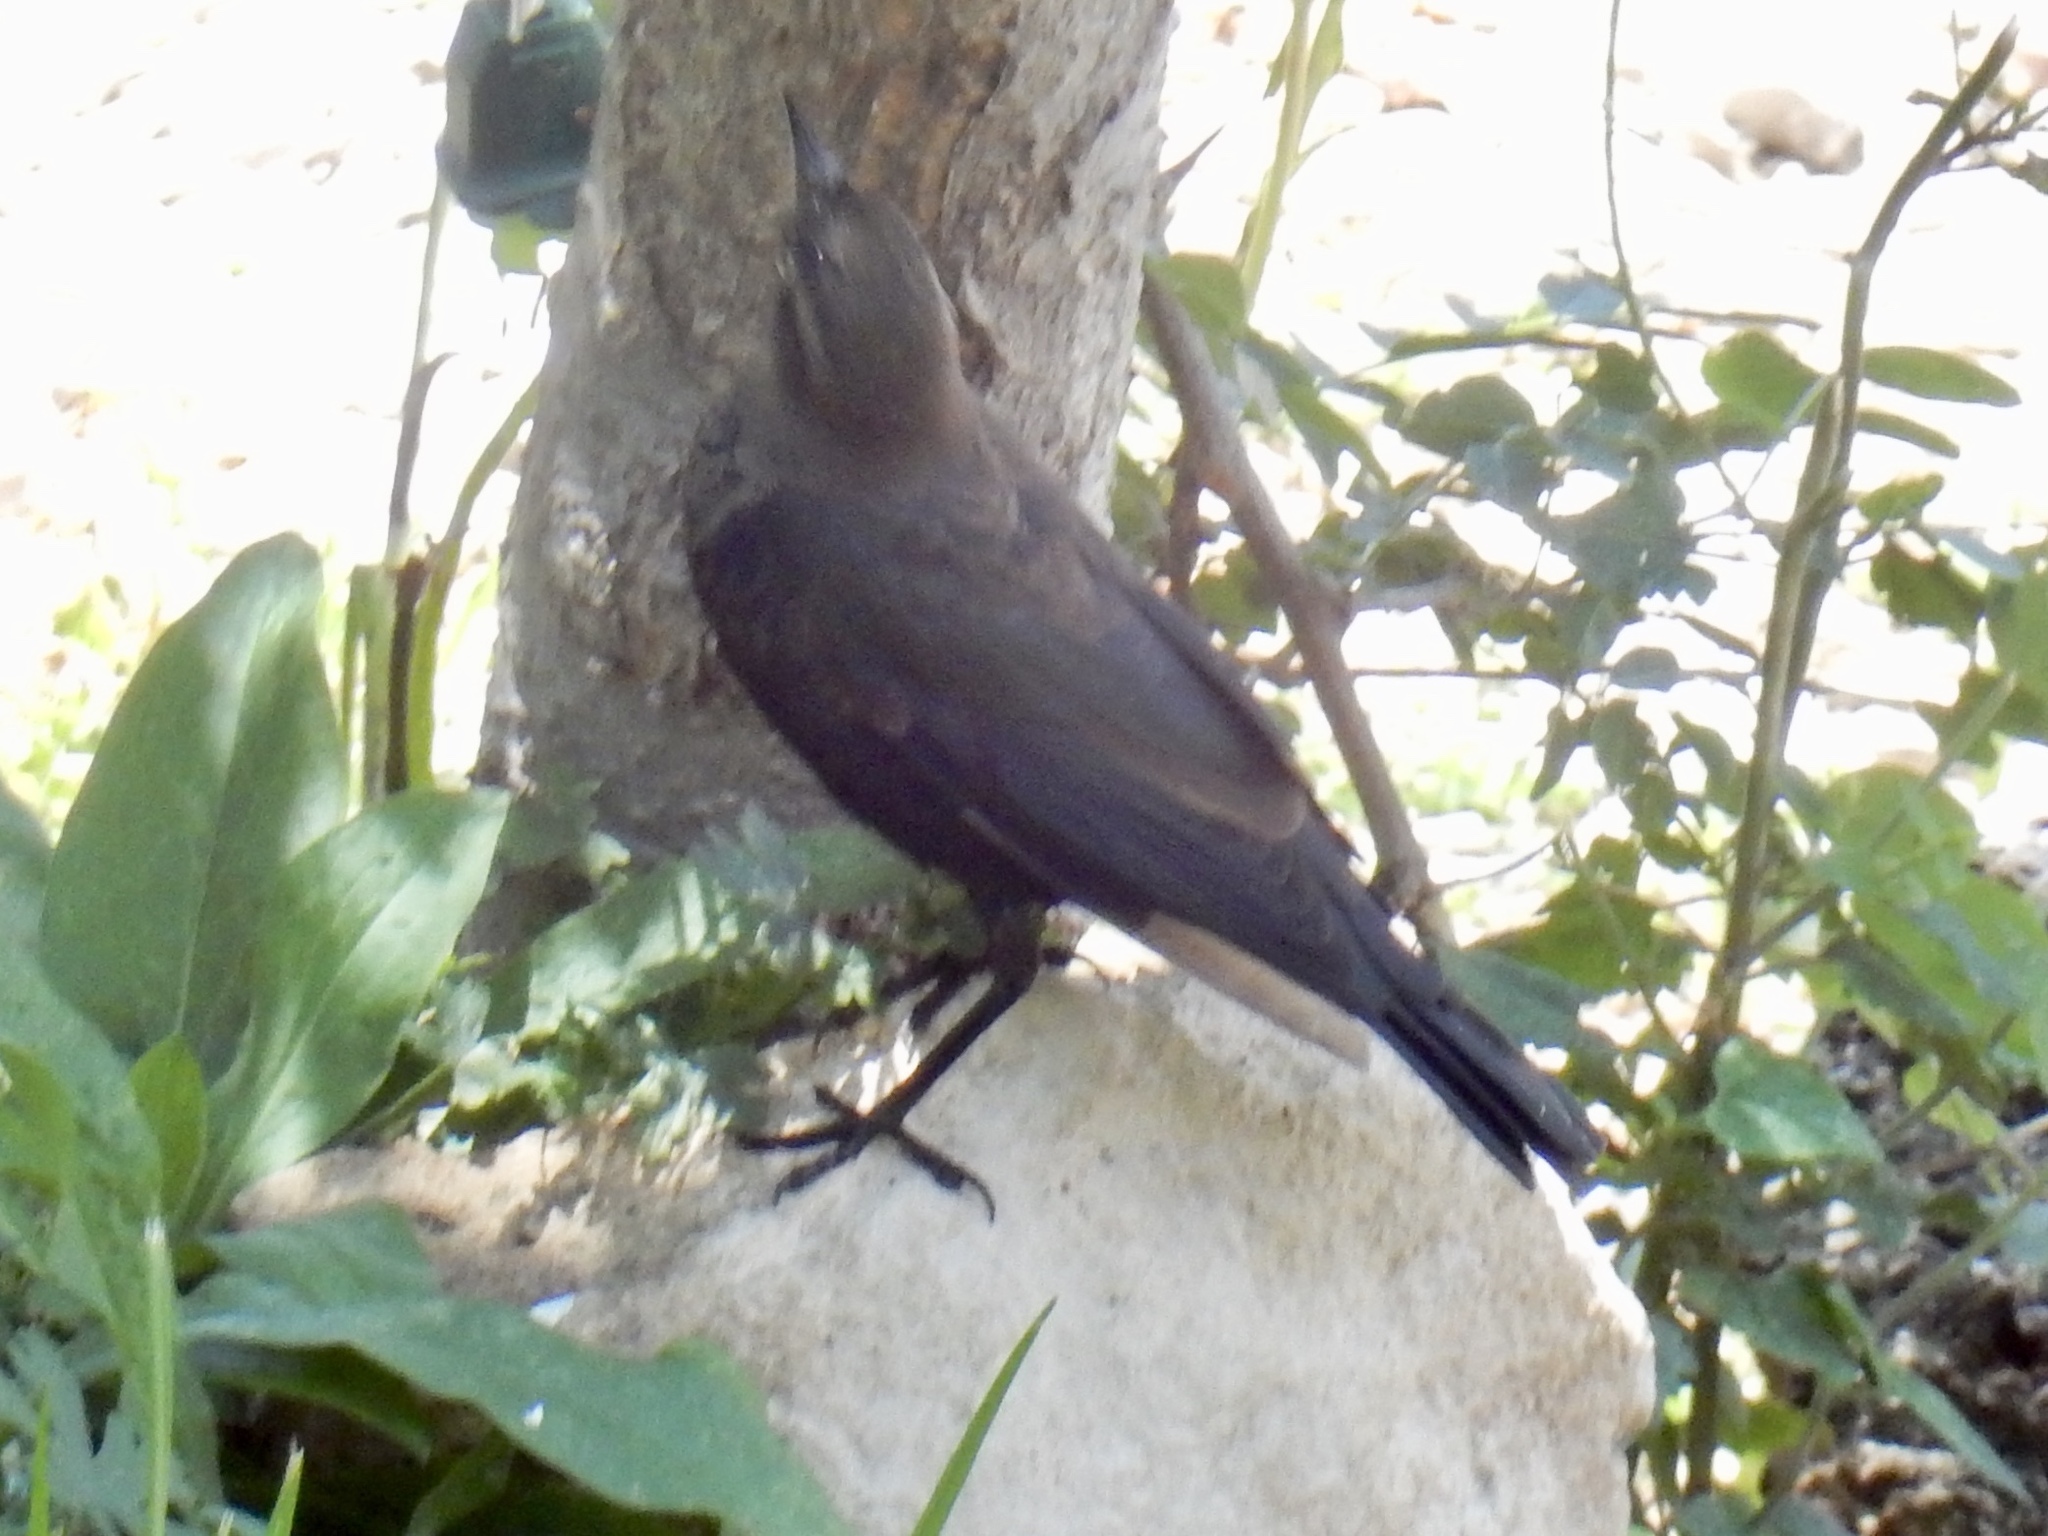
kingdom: Animalia
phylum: Chordata
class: Aves
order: Passeriformes
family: Icteridae
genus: Euphagus
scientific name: Euphagus cyanocephalus
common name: Brewer's blackbird
